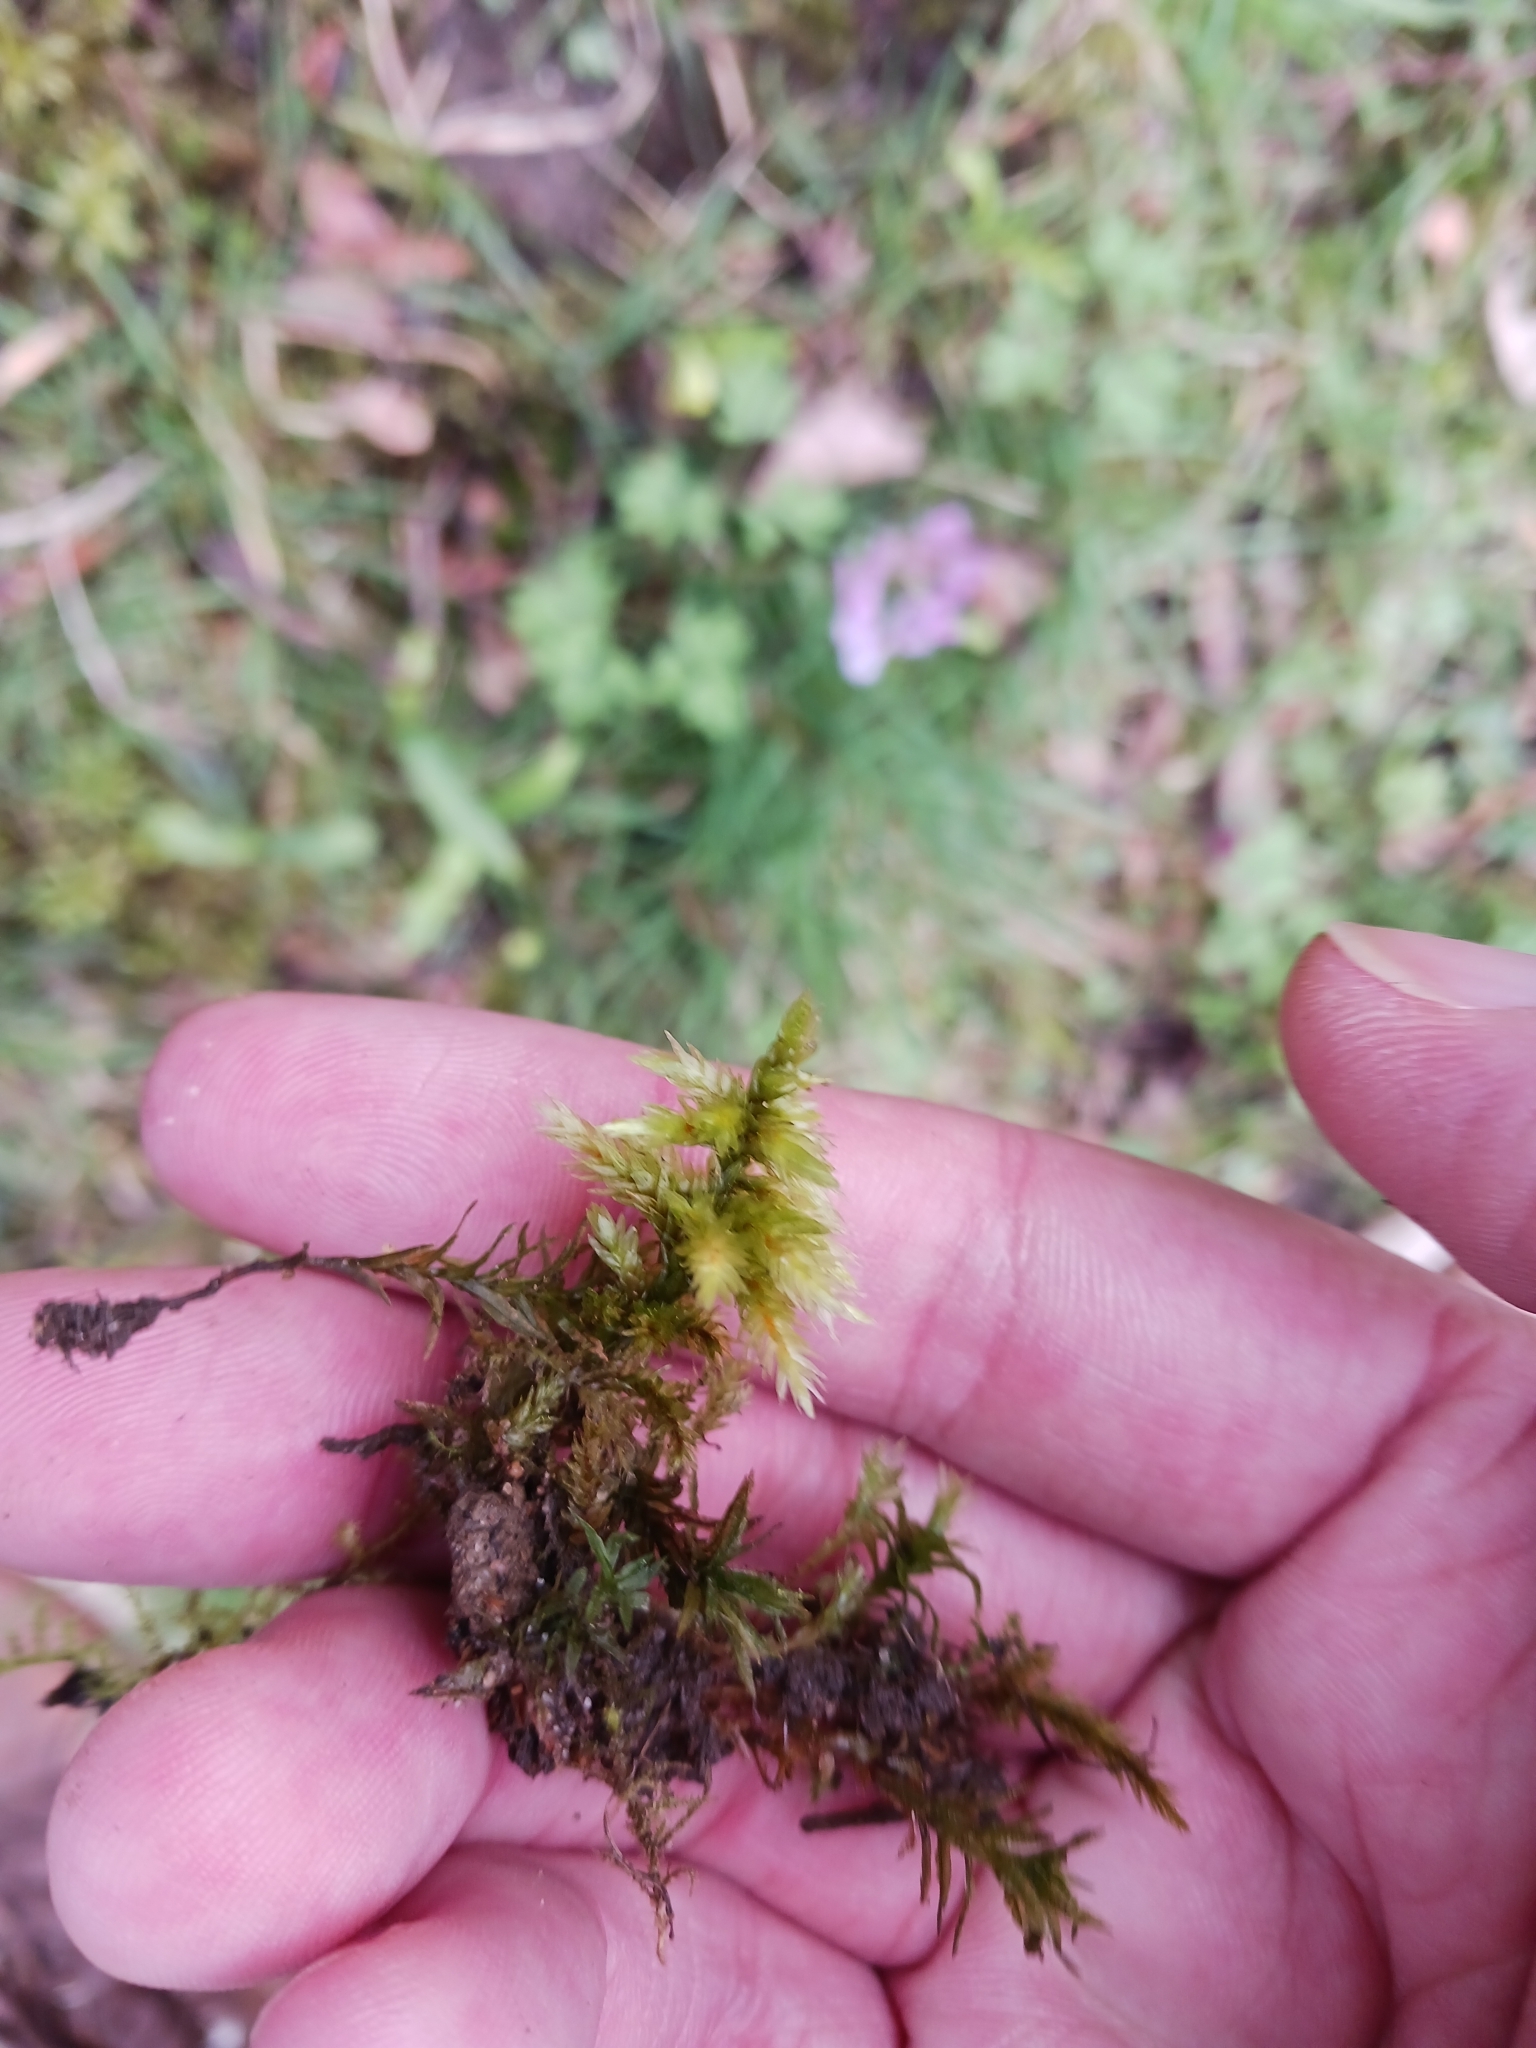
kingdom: Plantae
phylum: Bryophyta
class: Bryopsida
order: Hypnales
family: Climaciaceae
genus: Climacium
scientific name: Climacium dendroides
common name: Northern tree moss
